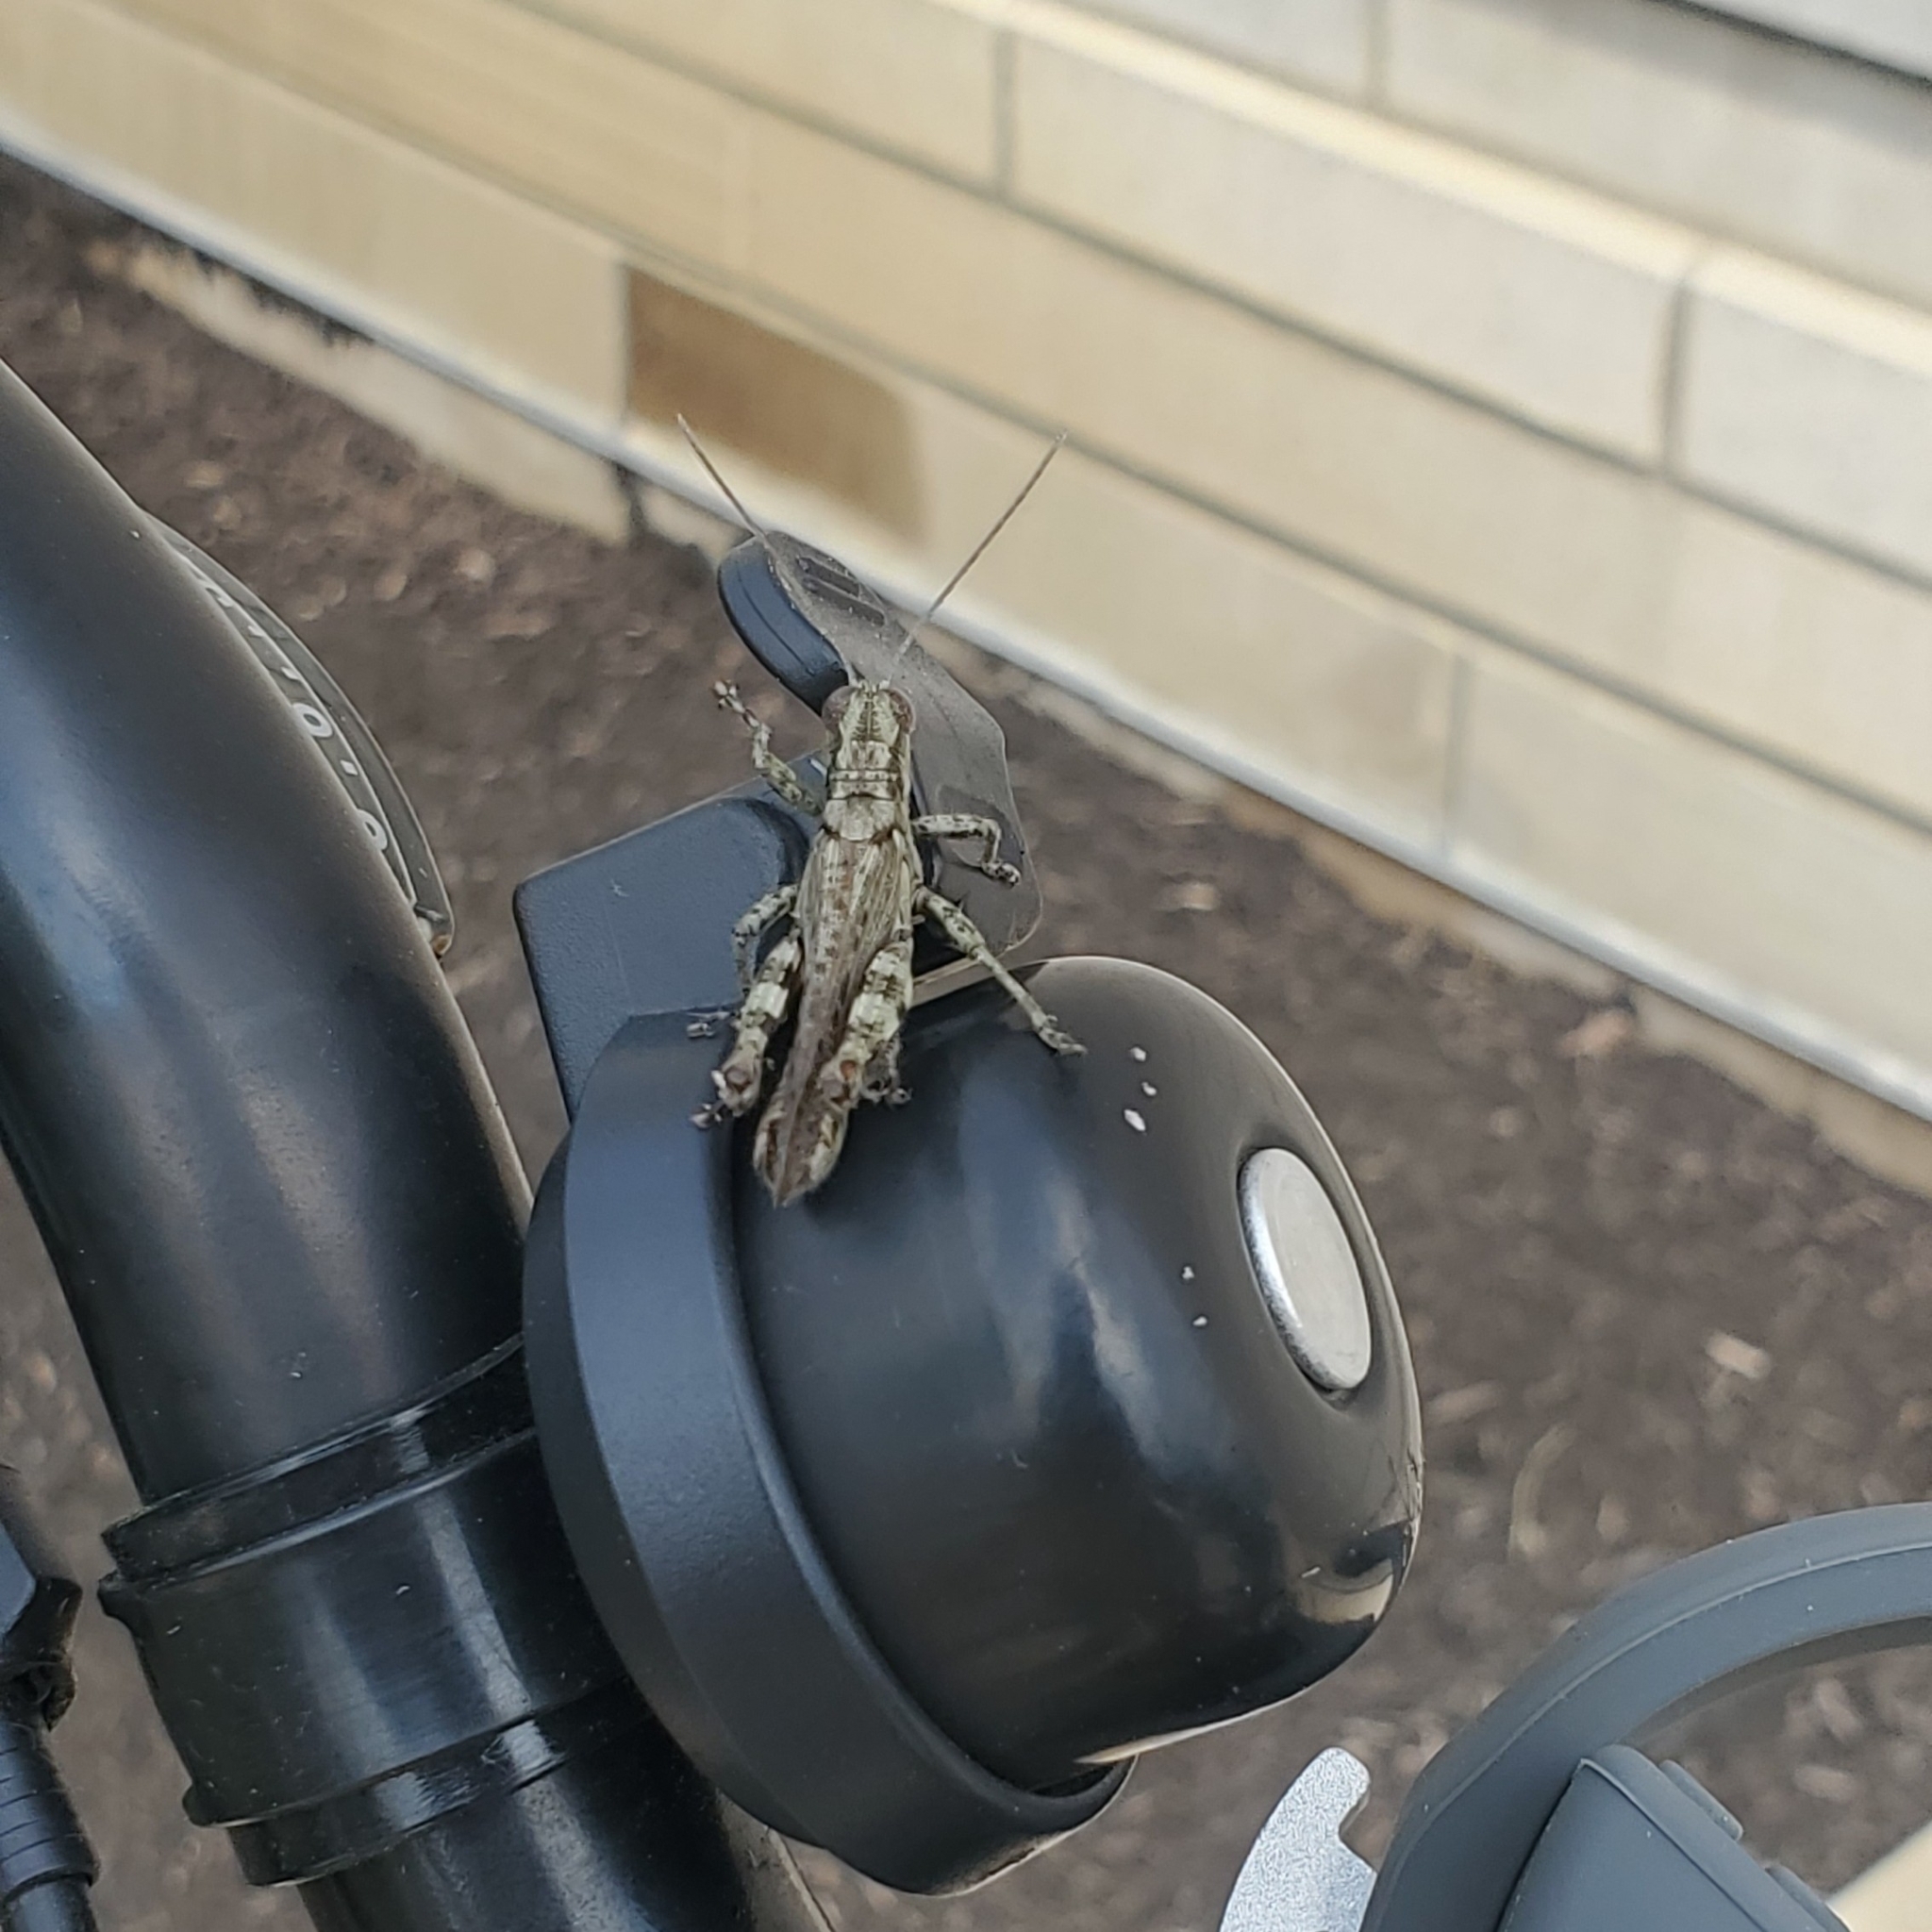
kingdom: Animalia
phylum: Arthropoda
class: Insecta
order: Orthoptera
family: Acrididae
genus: Melanoplus
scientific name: Melanoplus punctulatus
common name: Pine-tree spur-throat grasshopper
